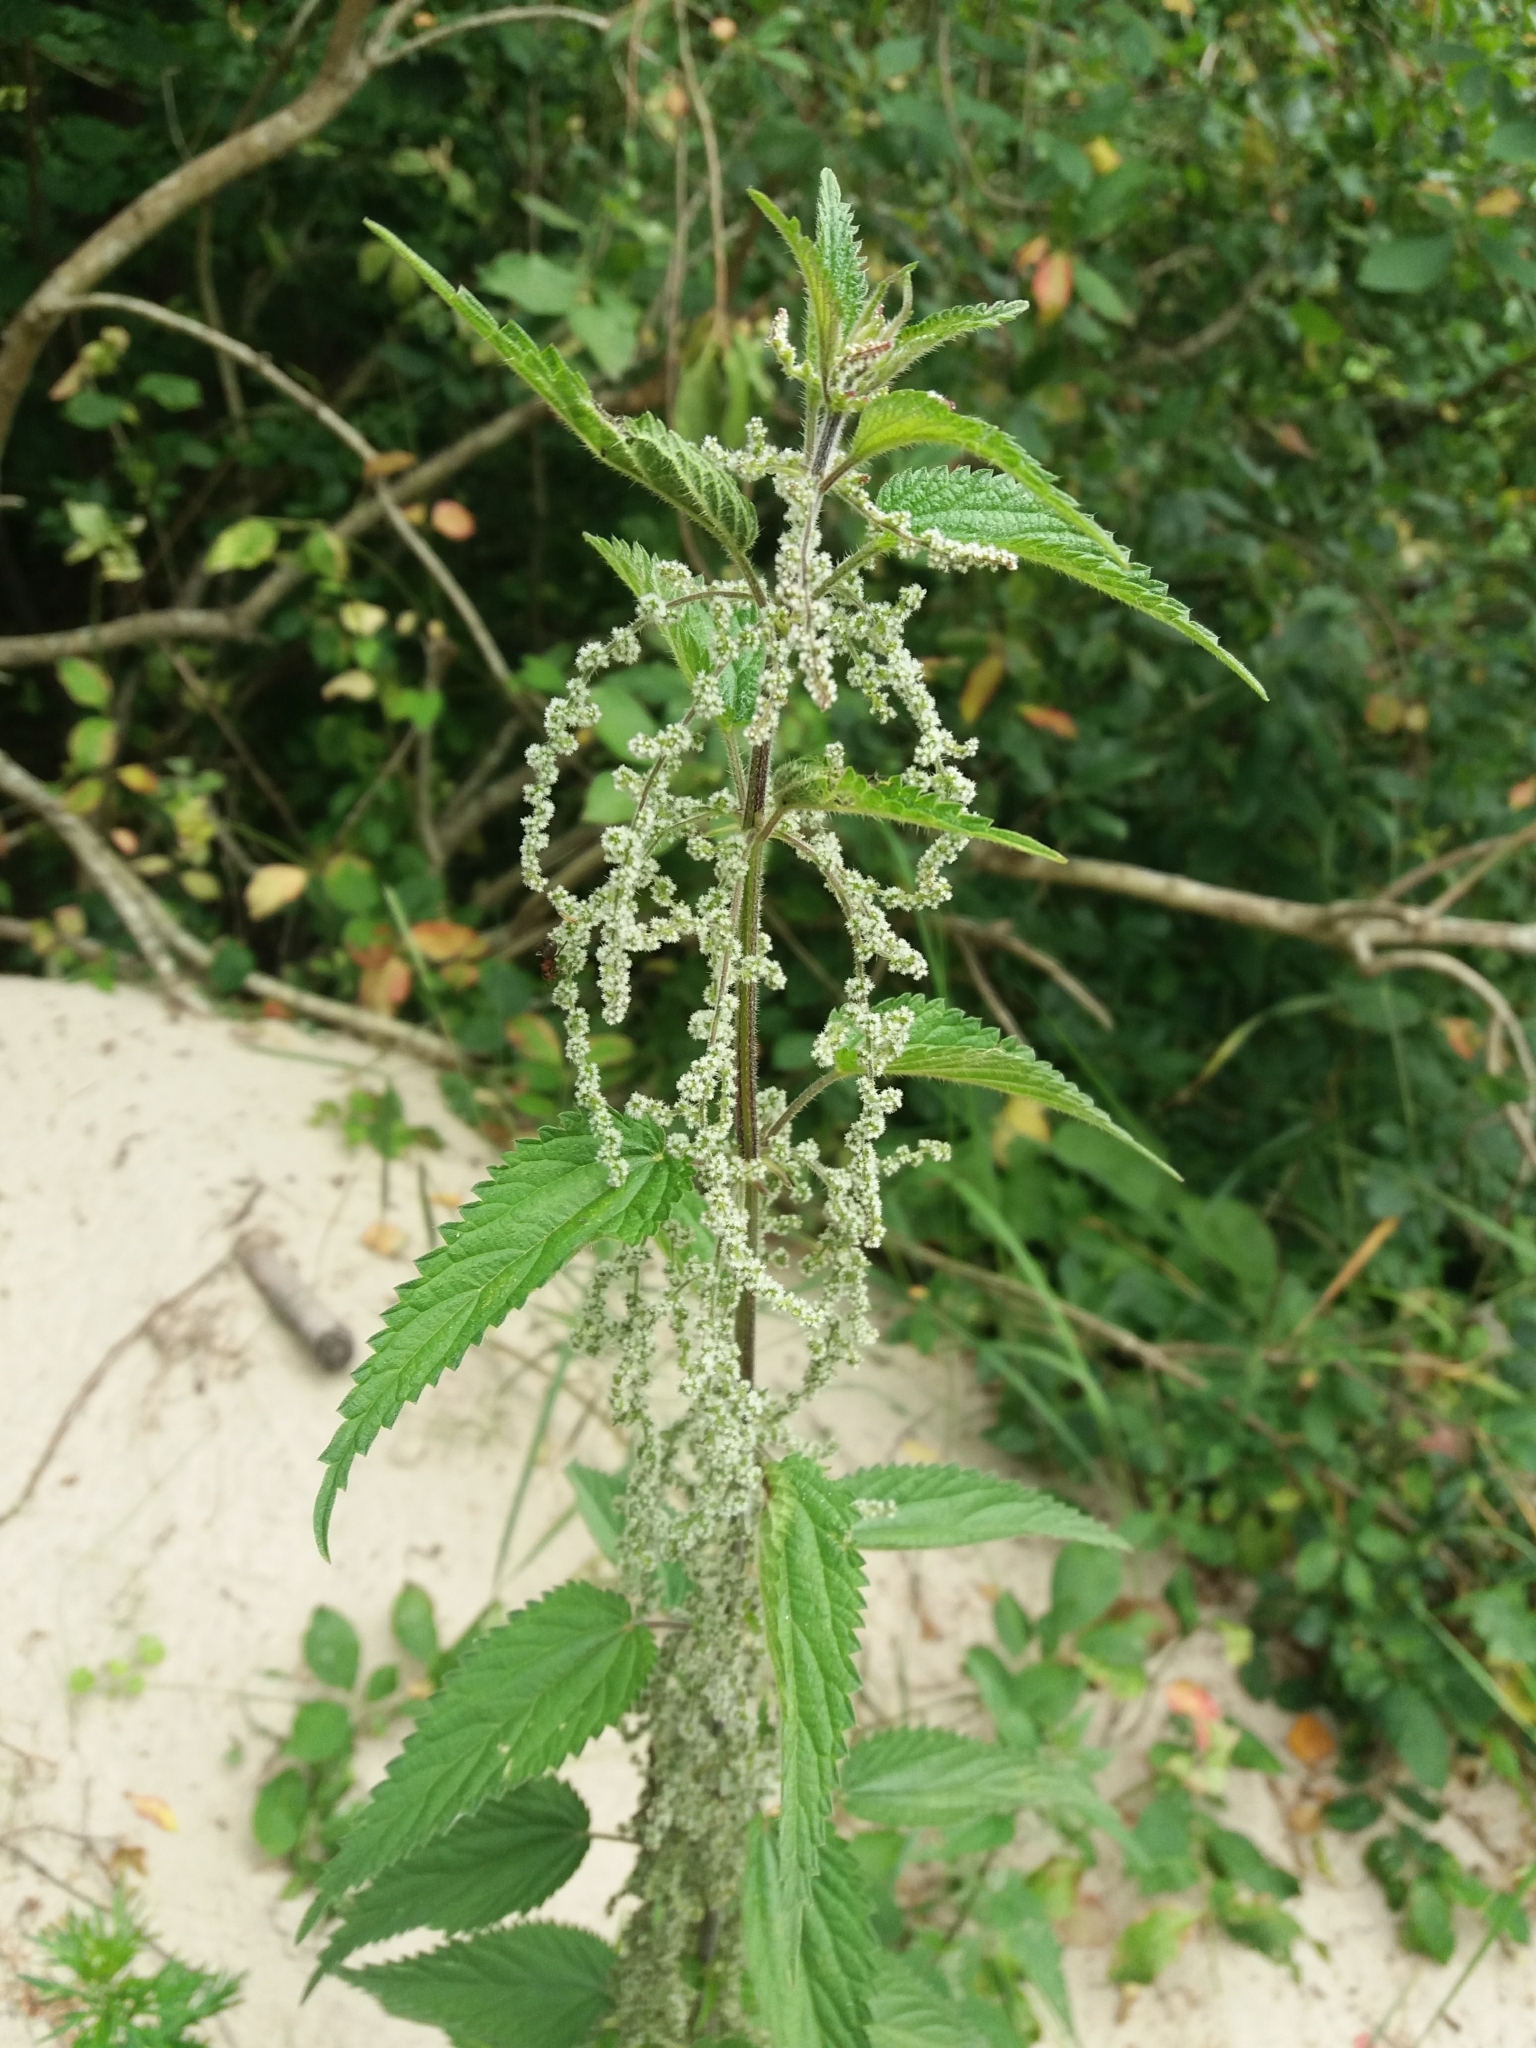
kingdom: Plantae
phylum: Tracheophyta
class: Magnoliopsida
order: Rosales
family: Urticaceae
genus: Urtica
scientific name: Urtica dioica
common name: Common nettle
